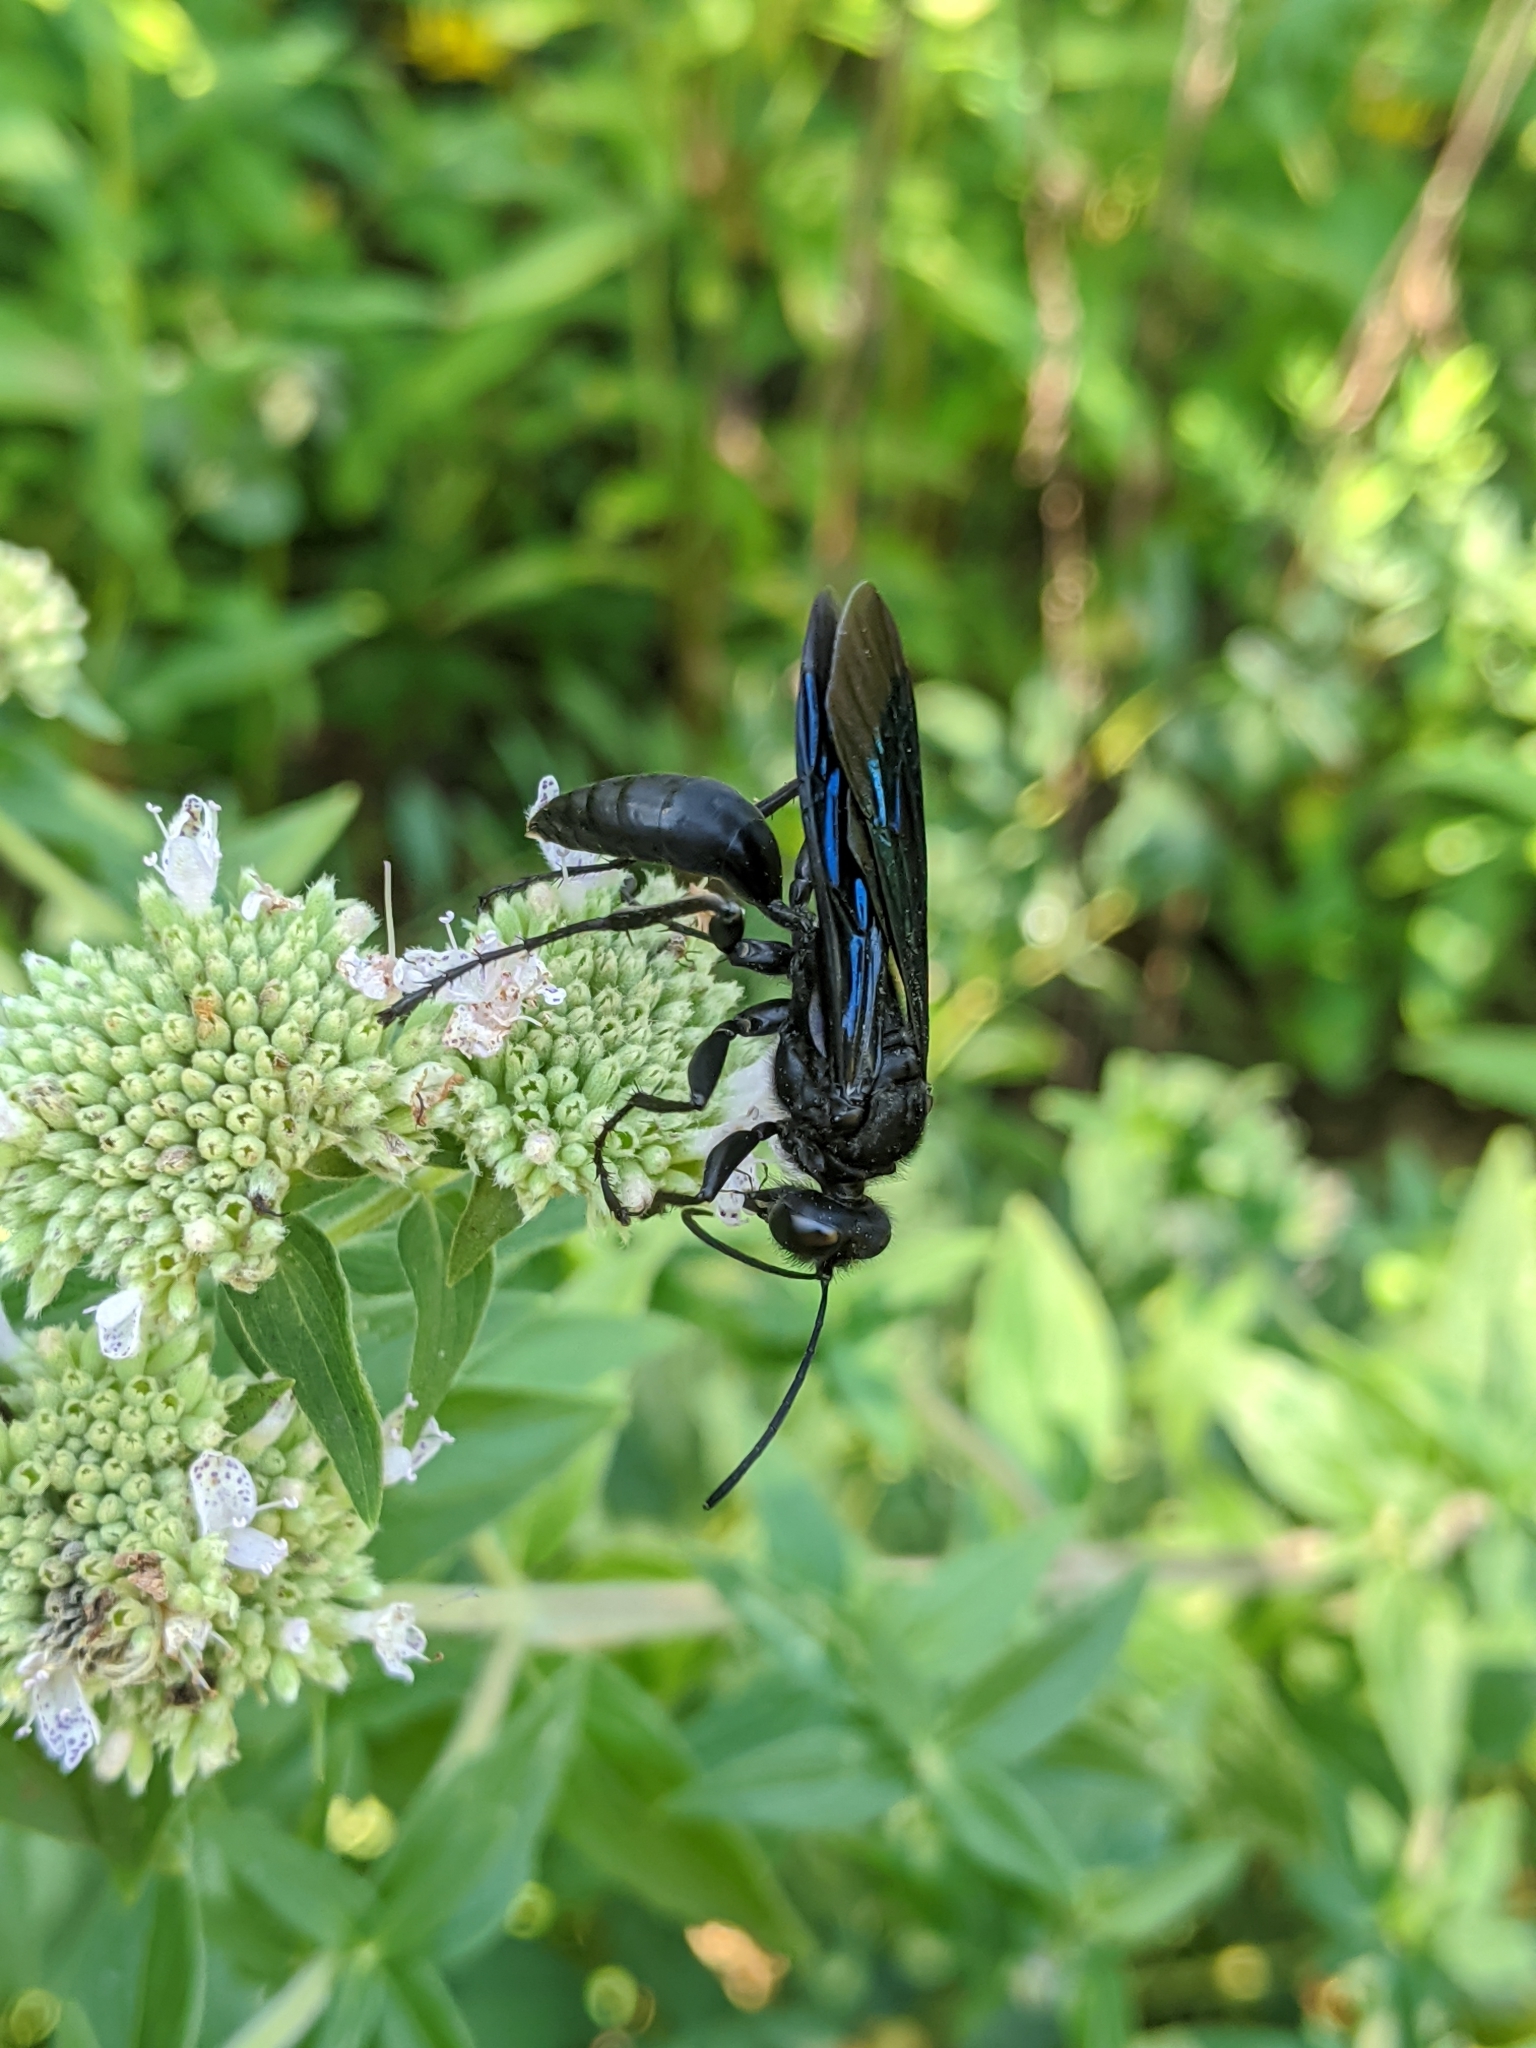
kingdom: Animalia
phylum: Arthropoda
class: Insecta
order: Hymenoptera
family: Sphecidae
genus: Sphex
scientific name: Sphex pensylvanicus
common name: Great black digger wasp
